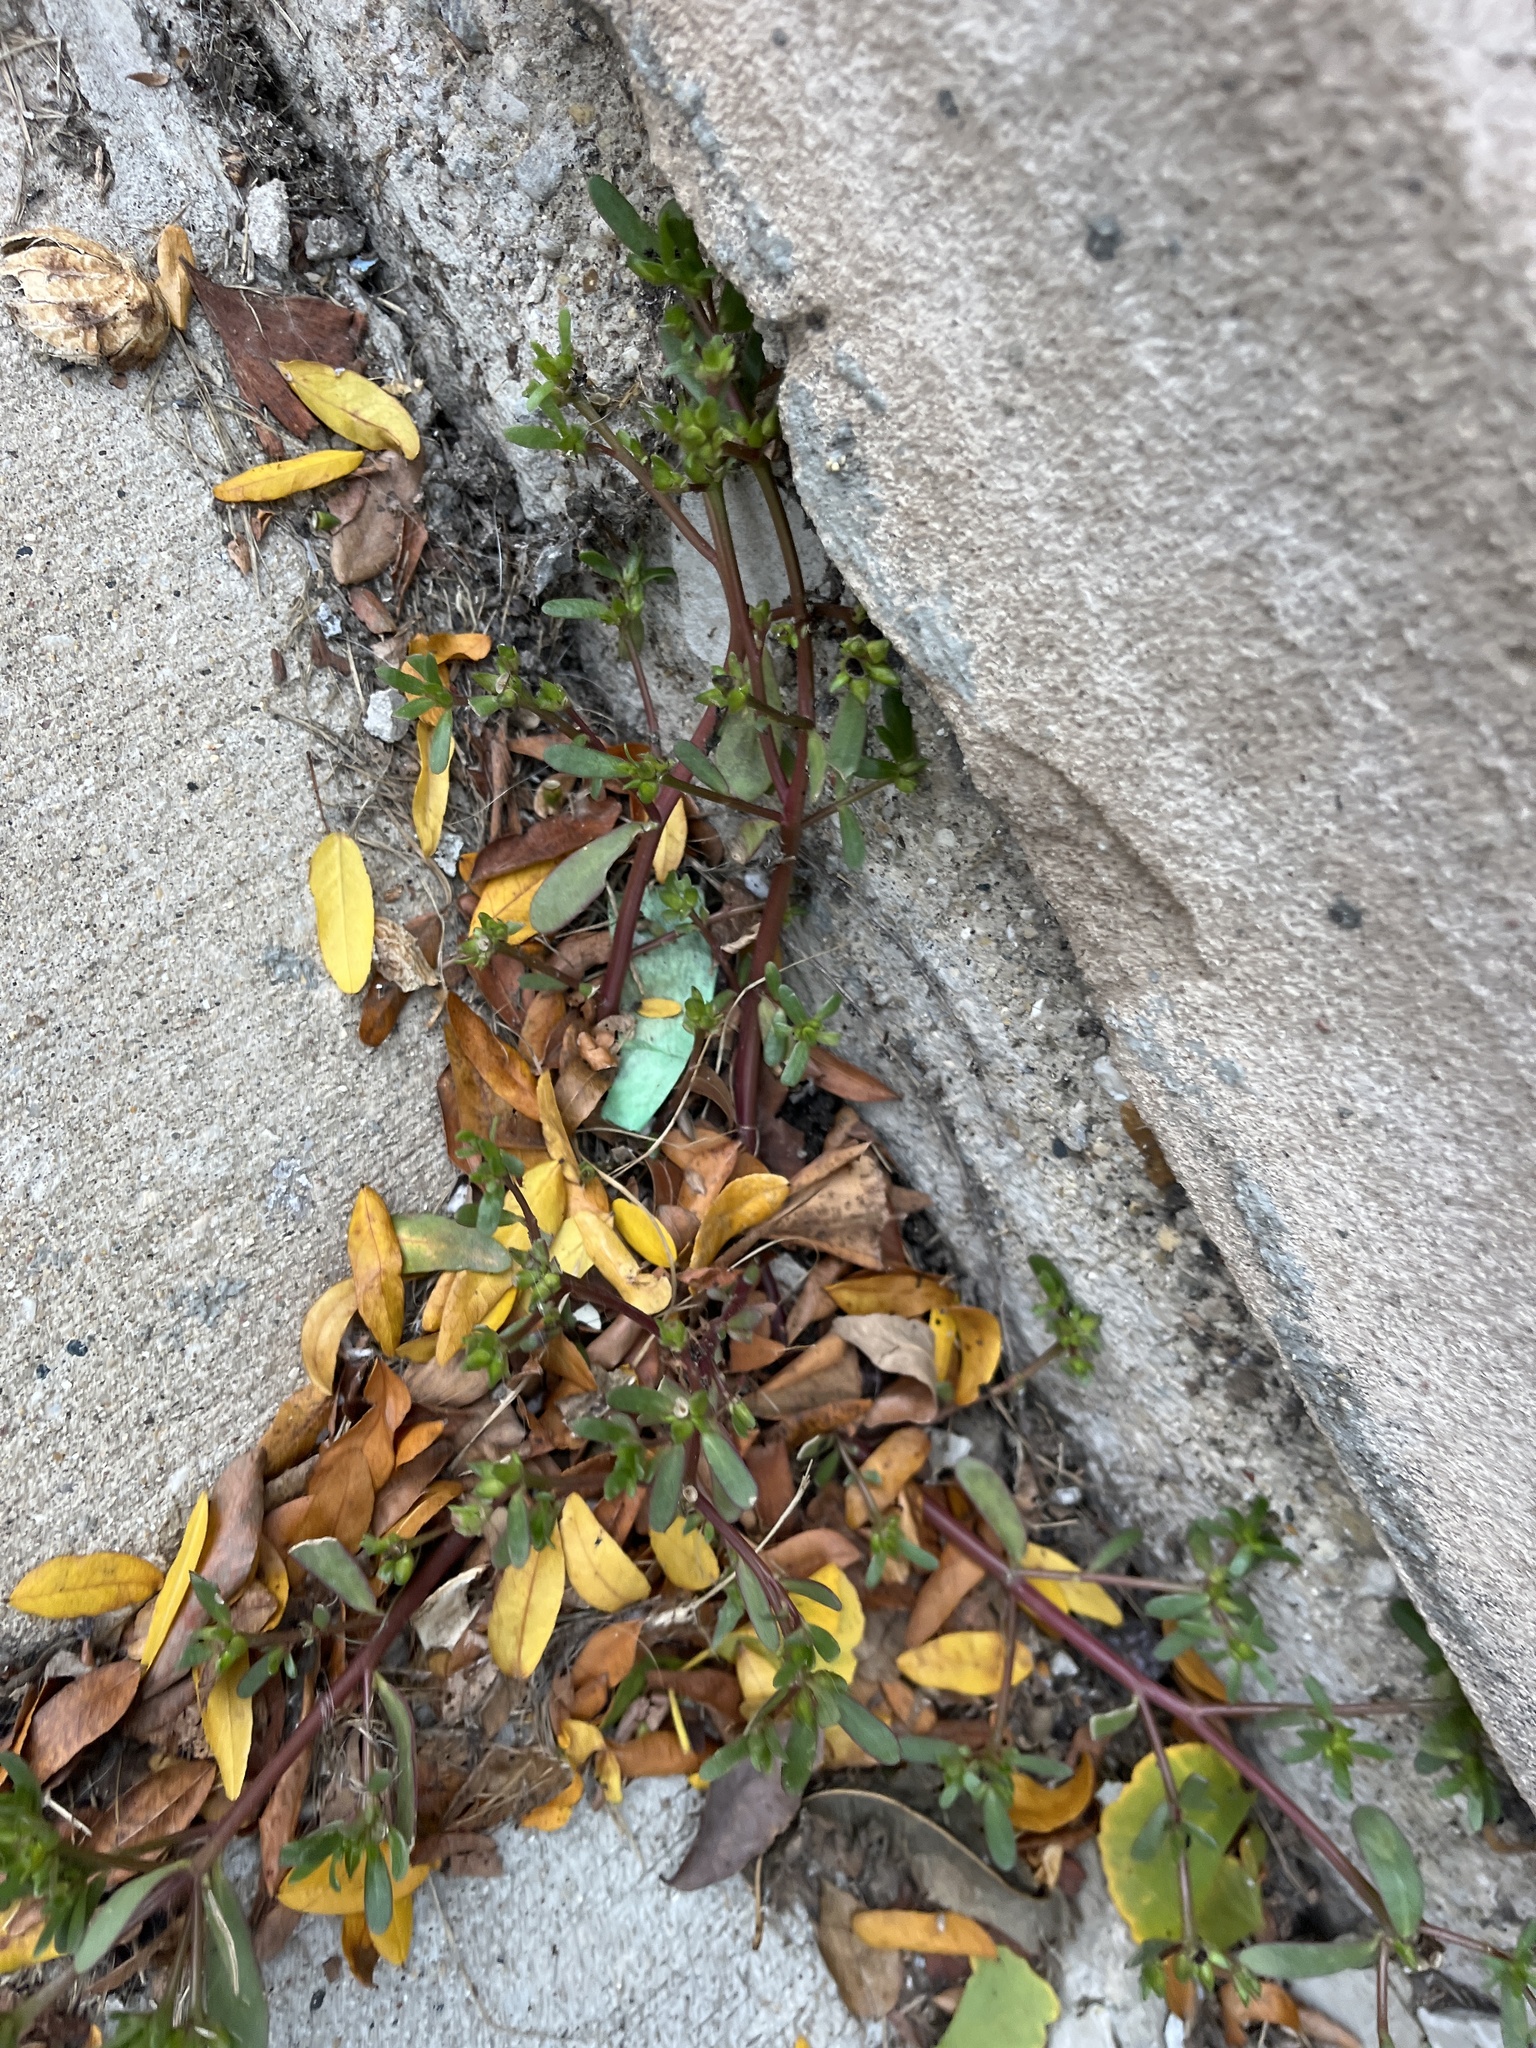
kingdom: Plantae
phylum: Tracheophyta
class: Magnoliopsida
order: Caryophyllales
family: Portulacaceae
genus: Portulaca
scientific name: Portulaca oleracea
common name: Common purslane
